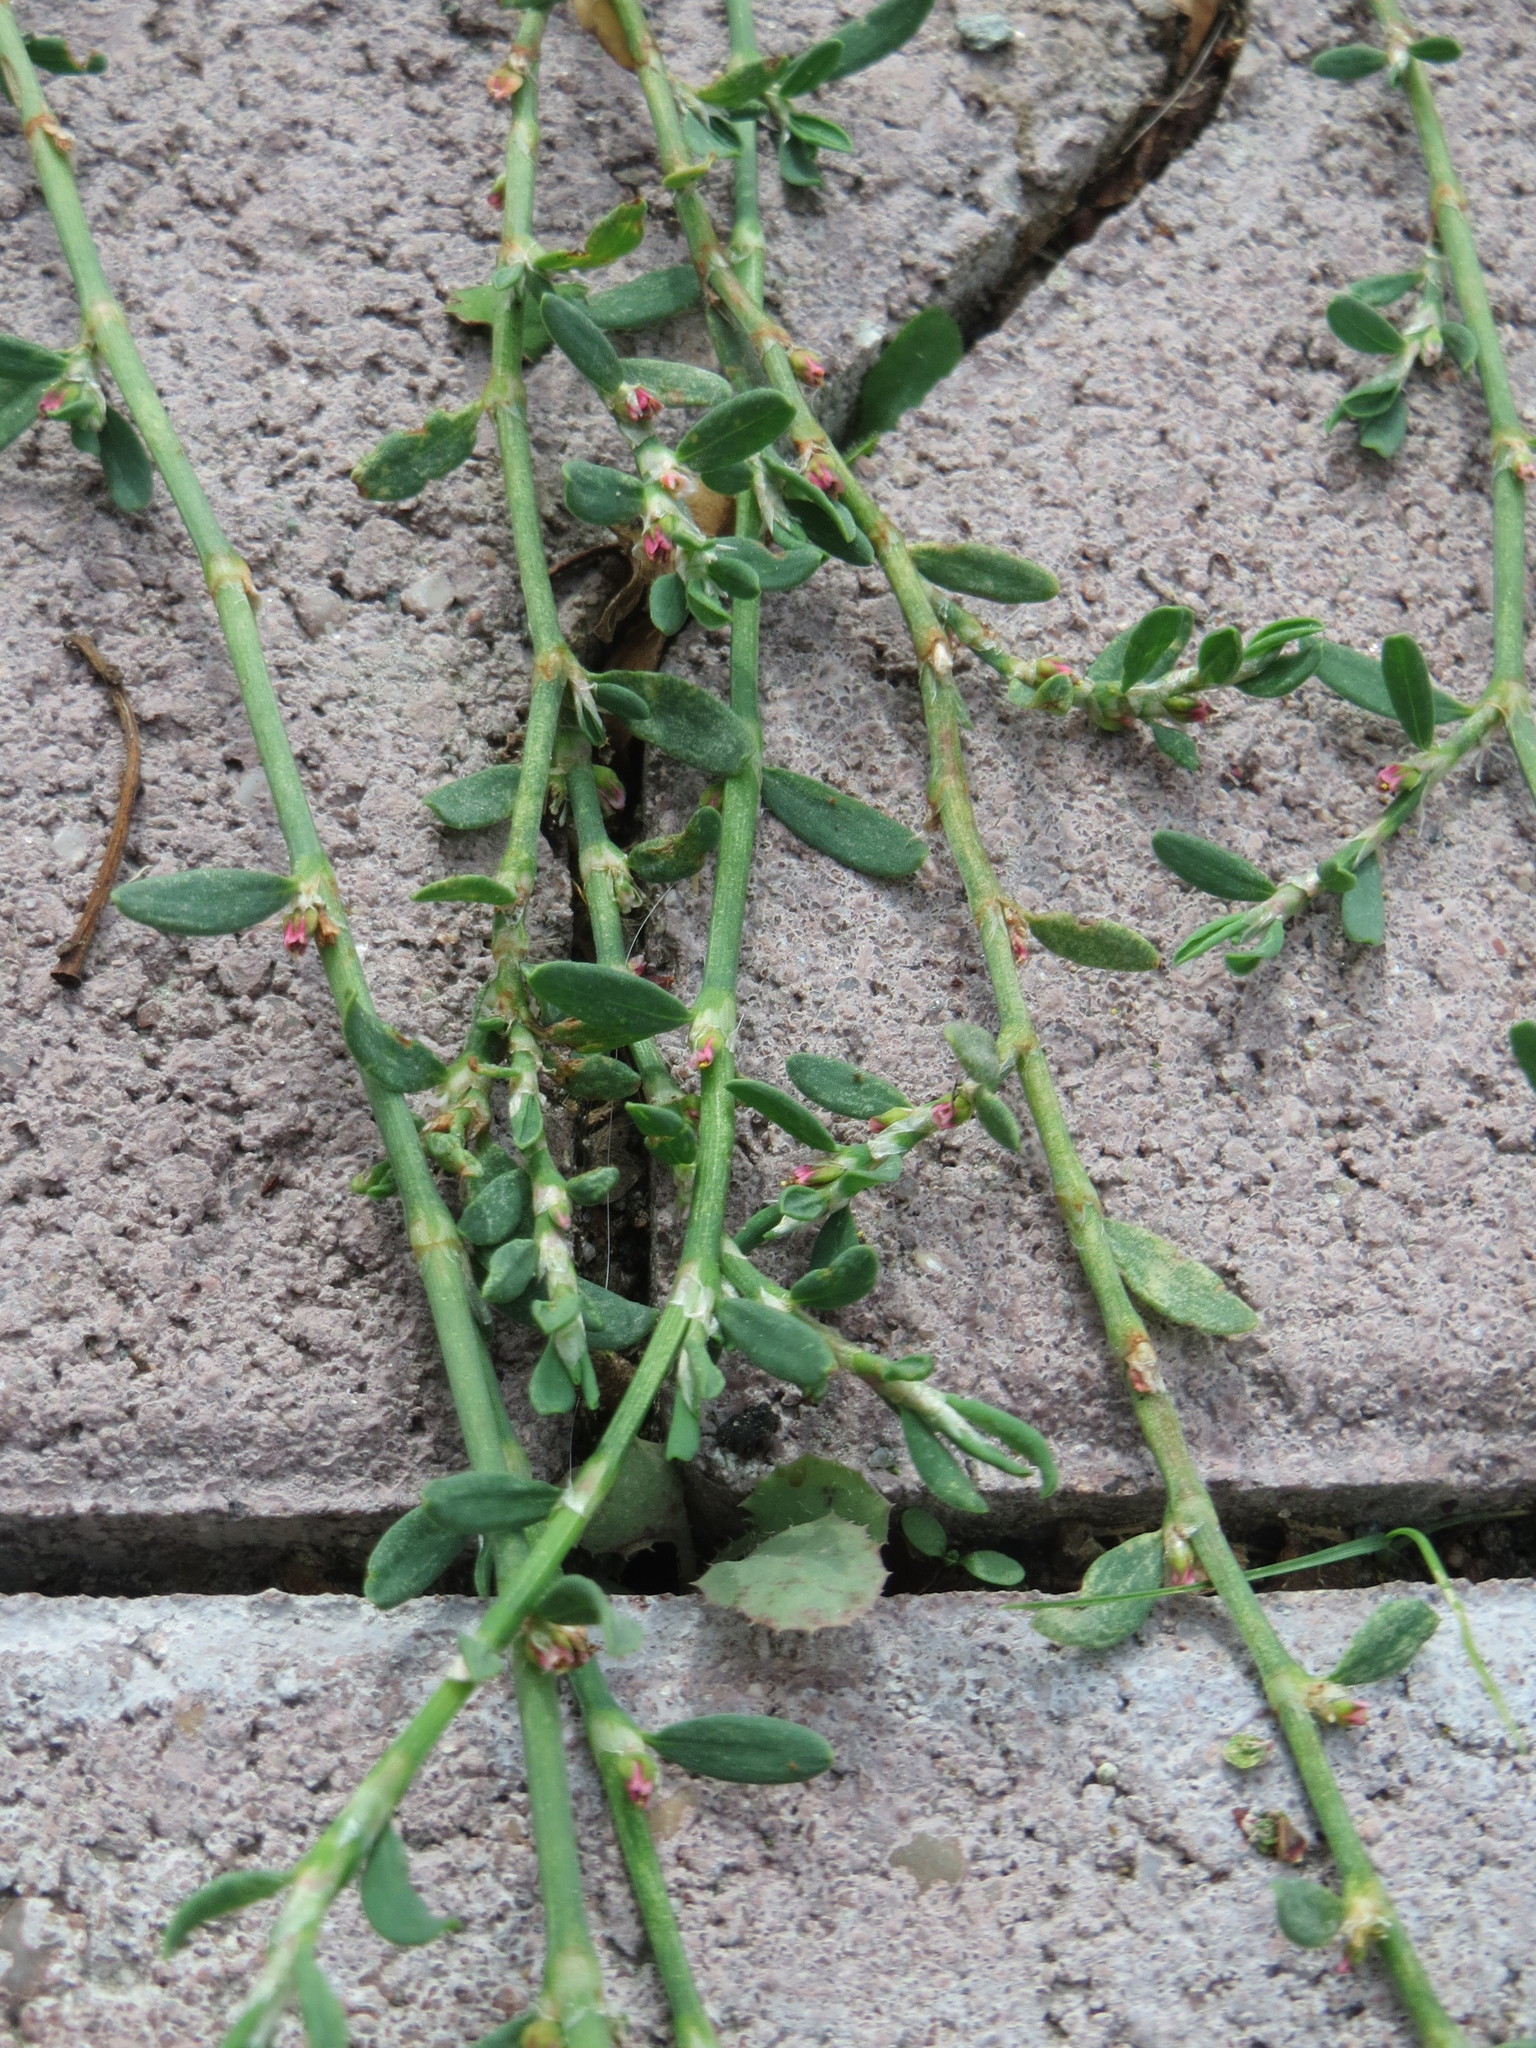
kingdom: Plantae
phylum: Tracheophyta
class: Magnoliopsida
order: Caryophyllales
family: Polygonaceae
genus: Polygonum
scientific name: Polygonum aviculare
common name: Prostrate knotweed
